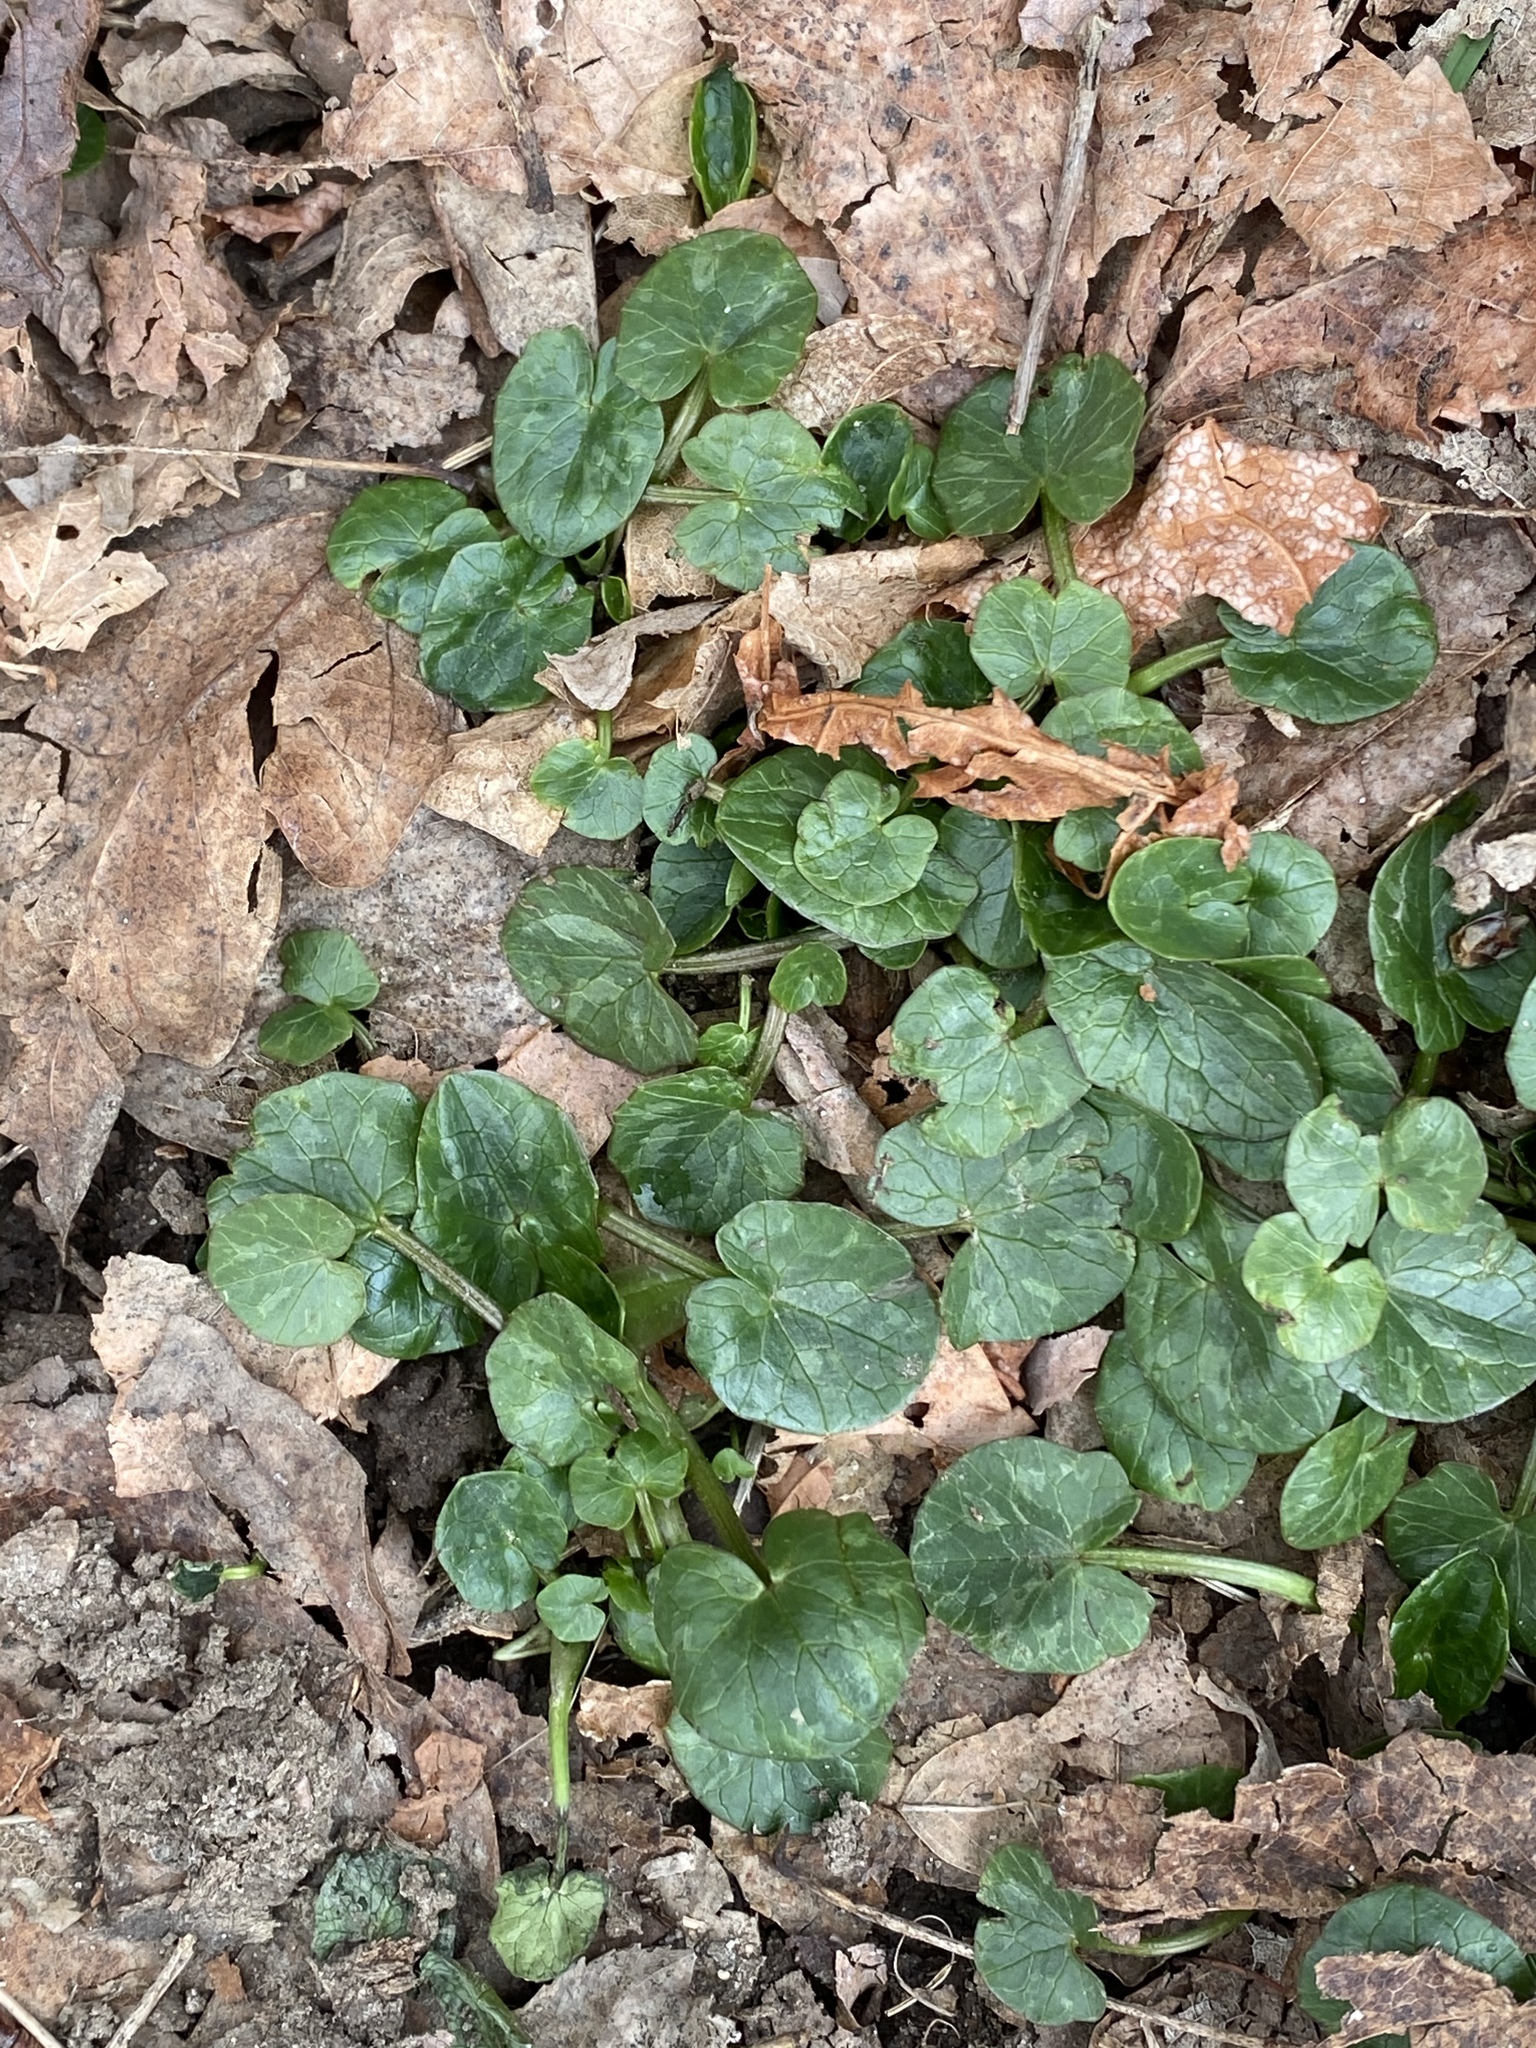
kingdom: Plantae
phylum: Tracheophyta
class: Magnoliopsida
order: Ranunculales
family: Ranunculaceae
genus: Ficaria
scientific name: Ficaria verna
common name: Lesser celandine
